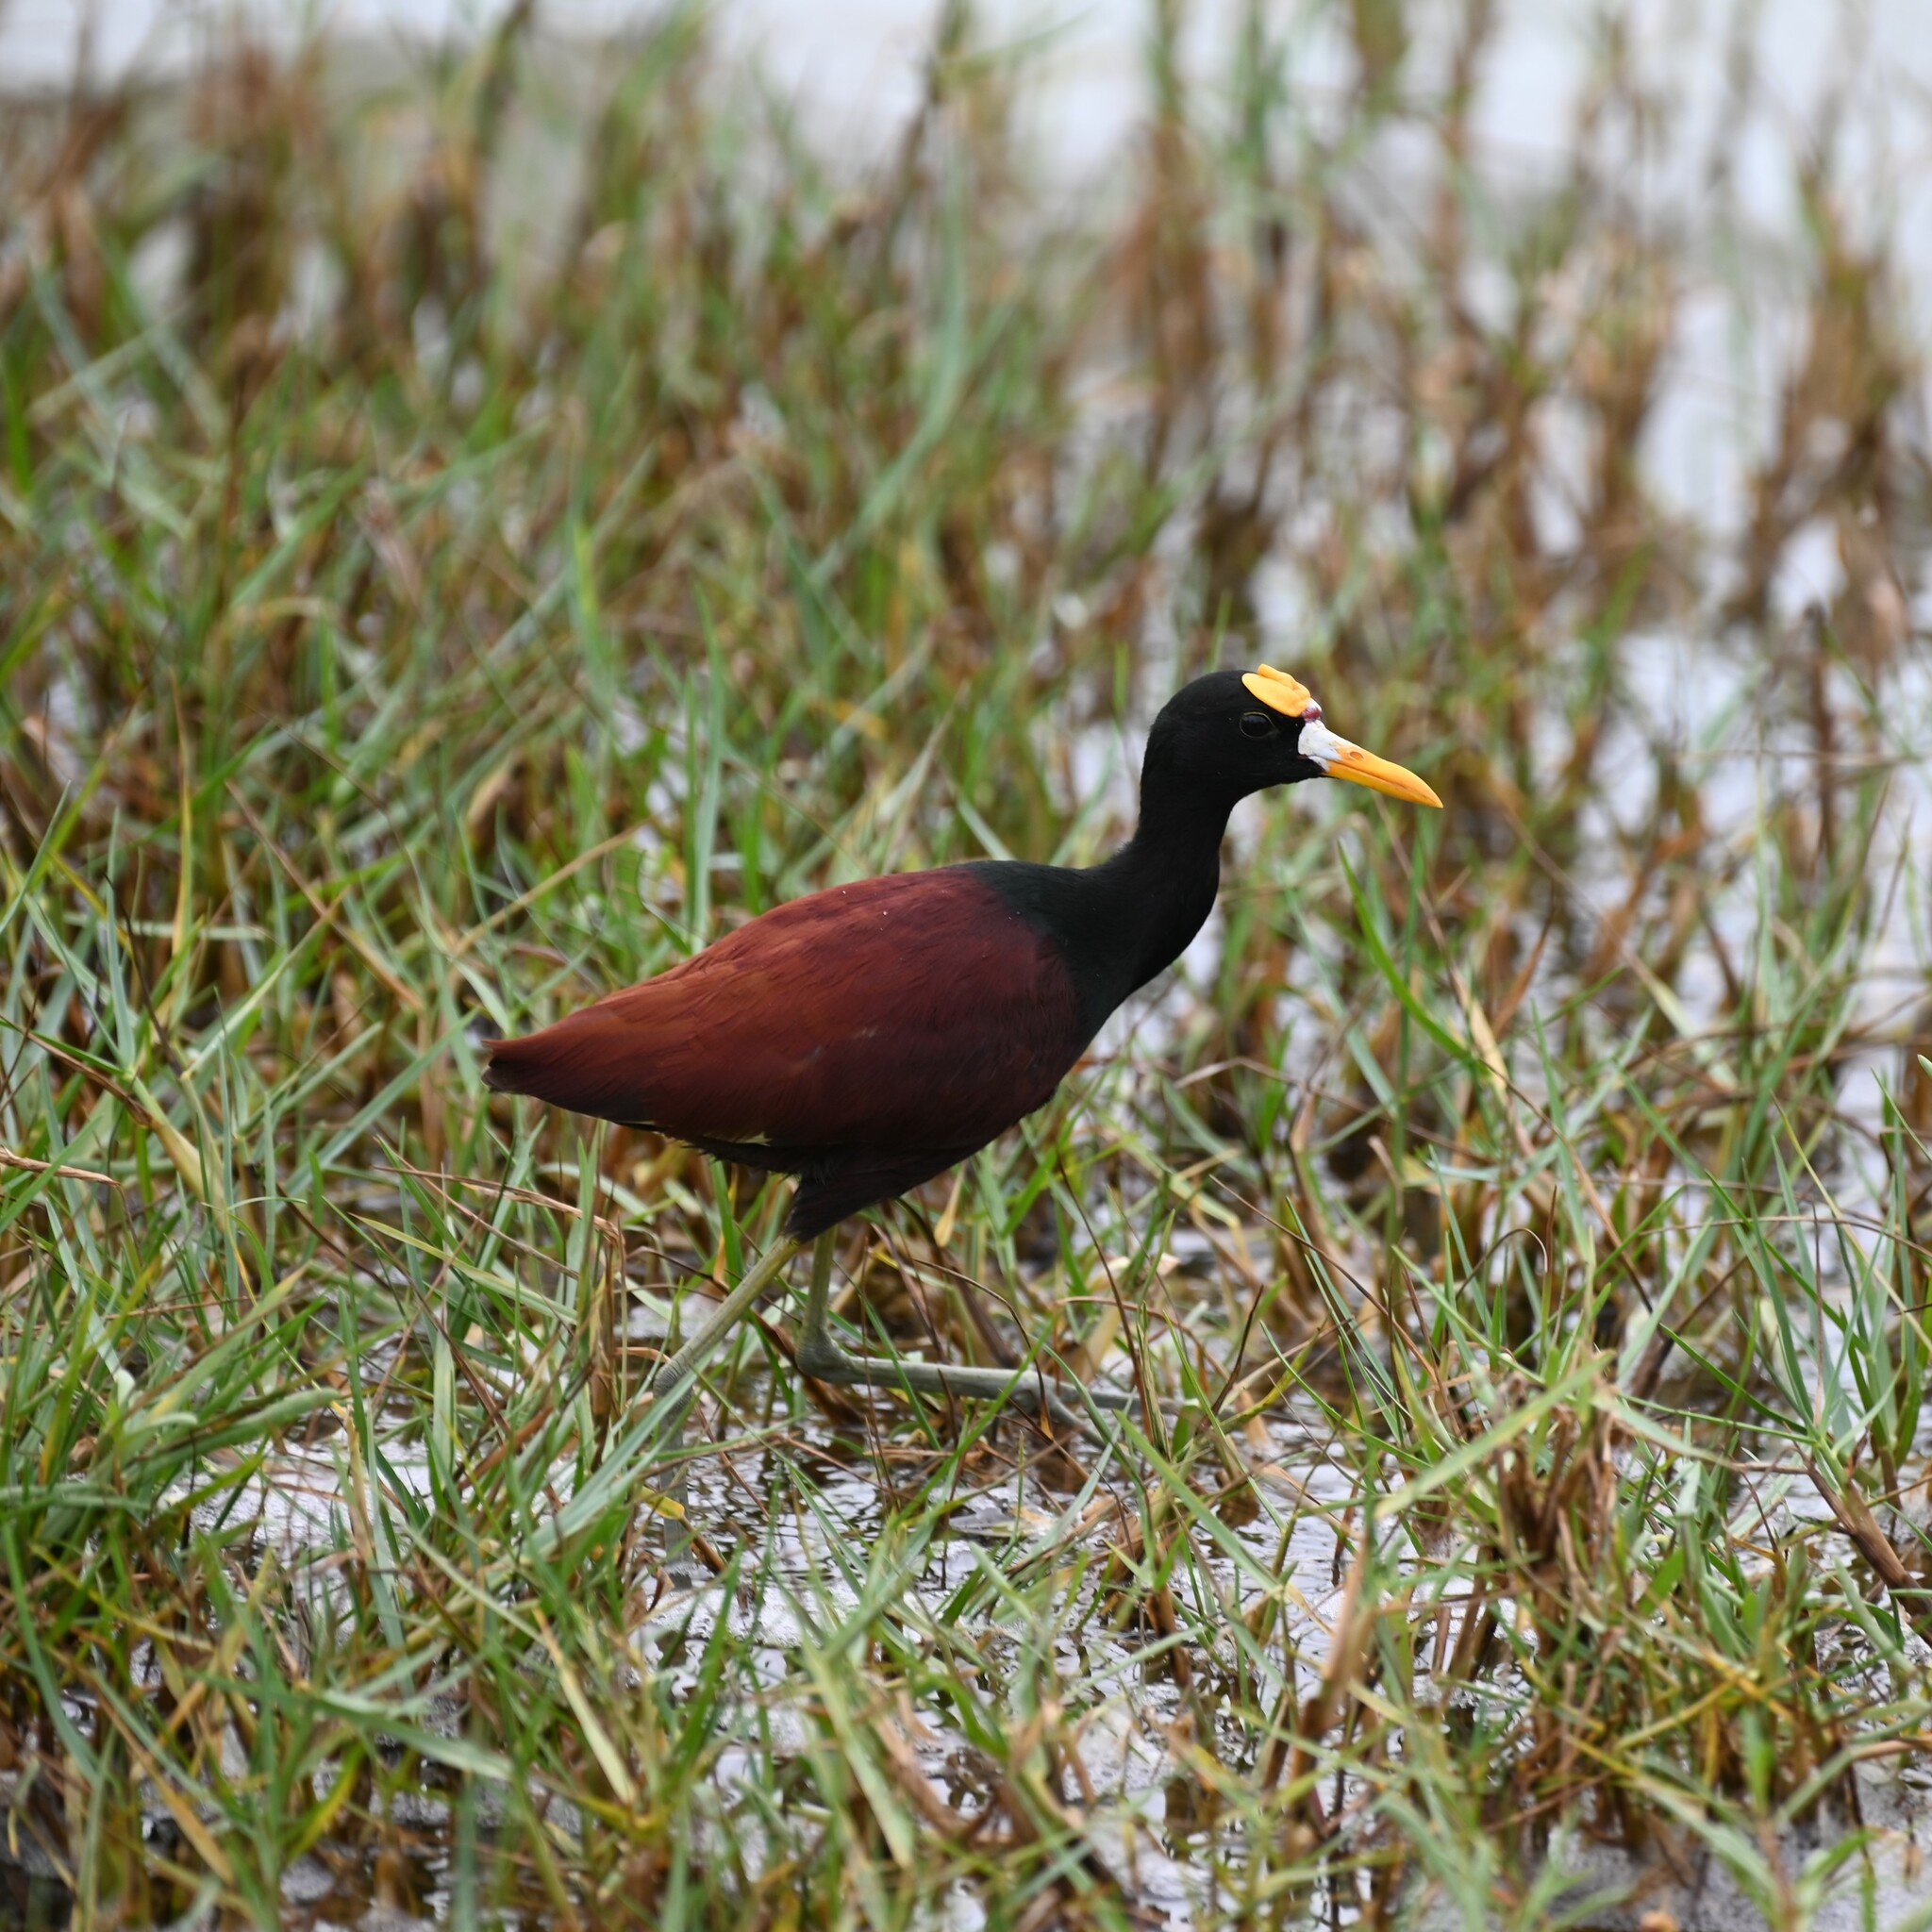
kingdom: Animalia
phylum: Chordata
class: Aves
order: Charadriiformes
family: Jacanidae
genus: Jacana
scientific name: Jacana spinosa
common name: Northern jacana
